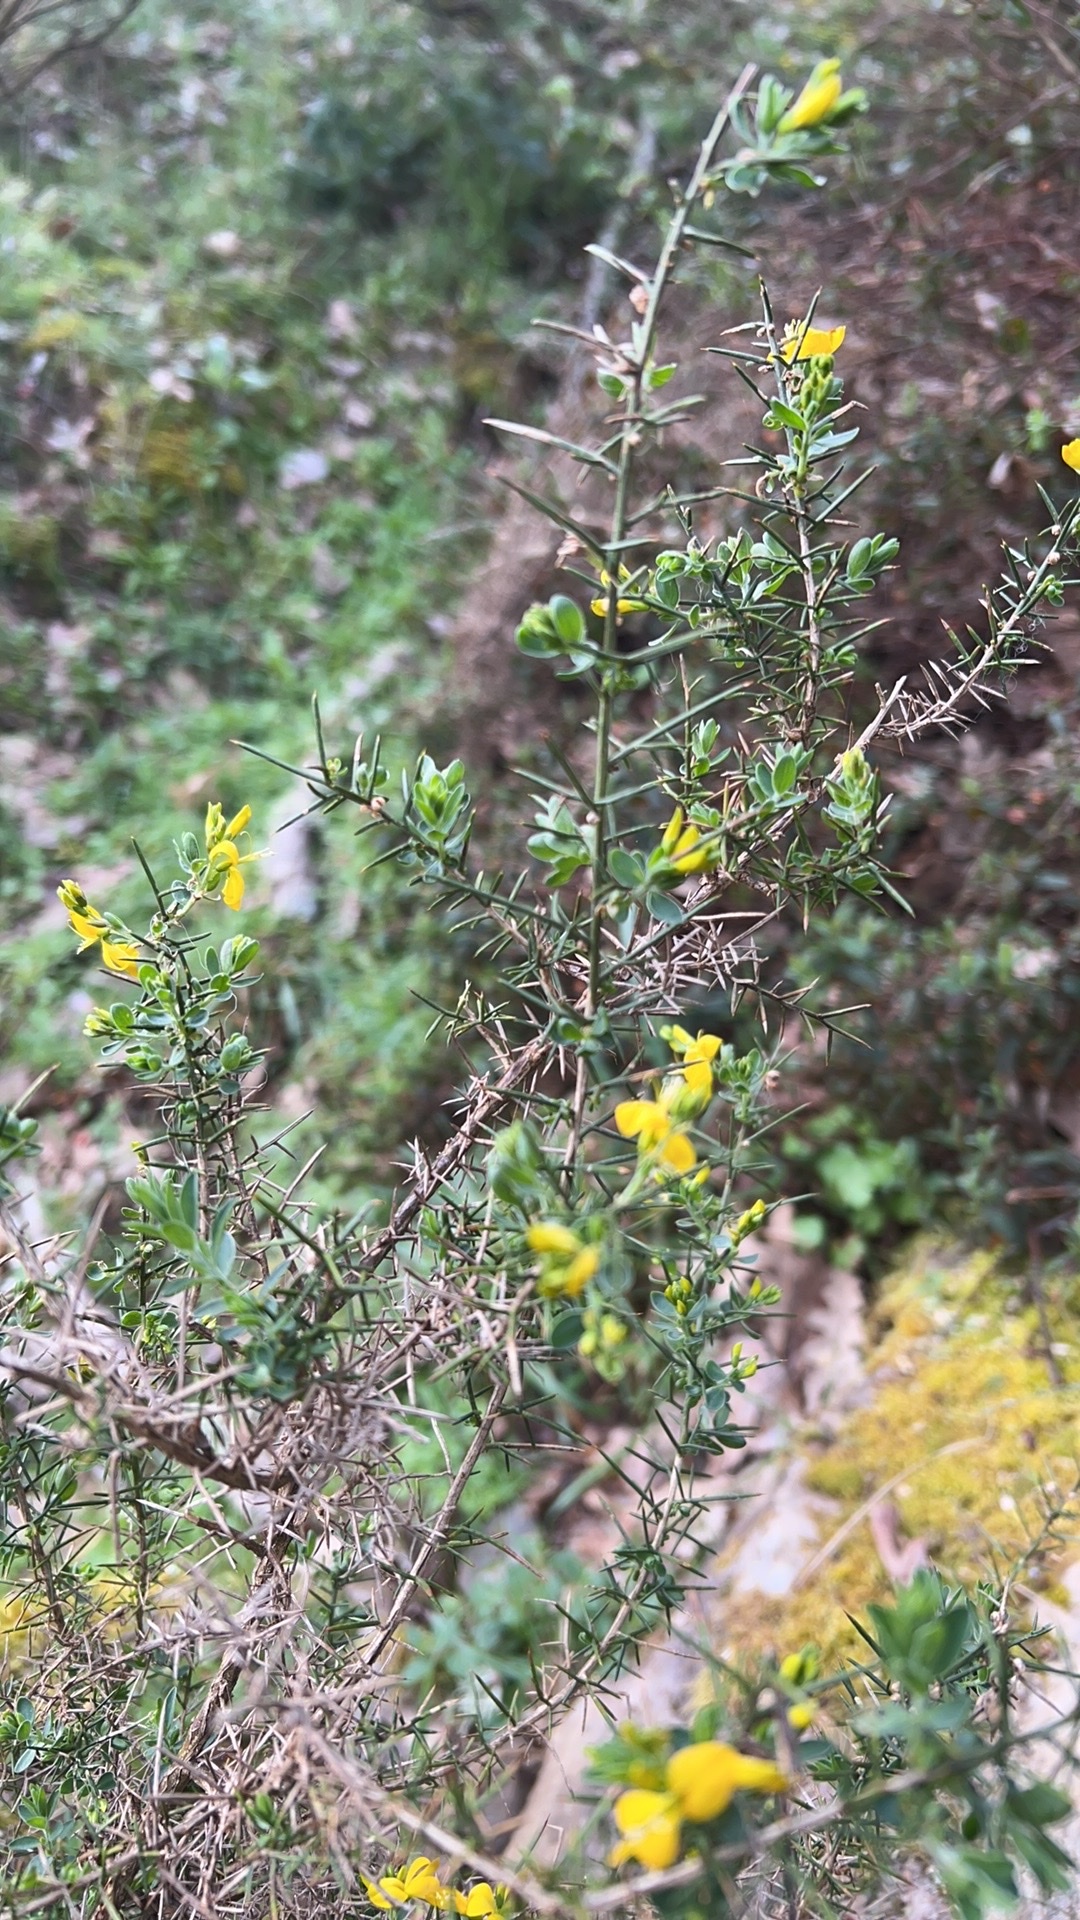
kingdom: Plantae
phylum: Tracheophyta
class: Magnoliopsida
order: Fabales
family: Fabaceae
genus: Genista
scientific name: Genista falcata
